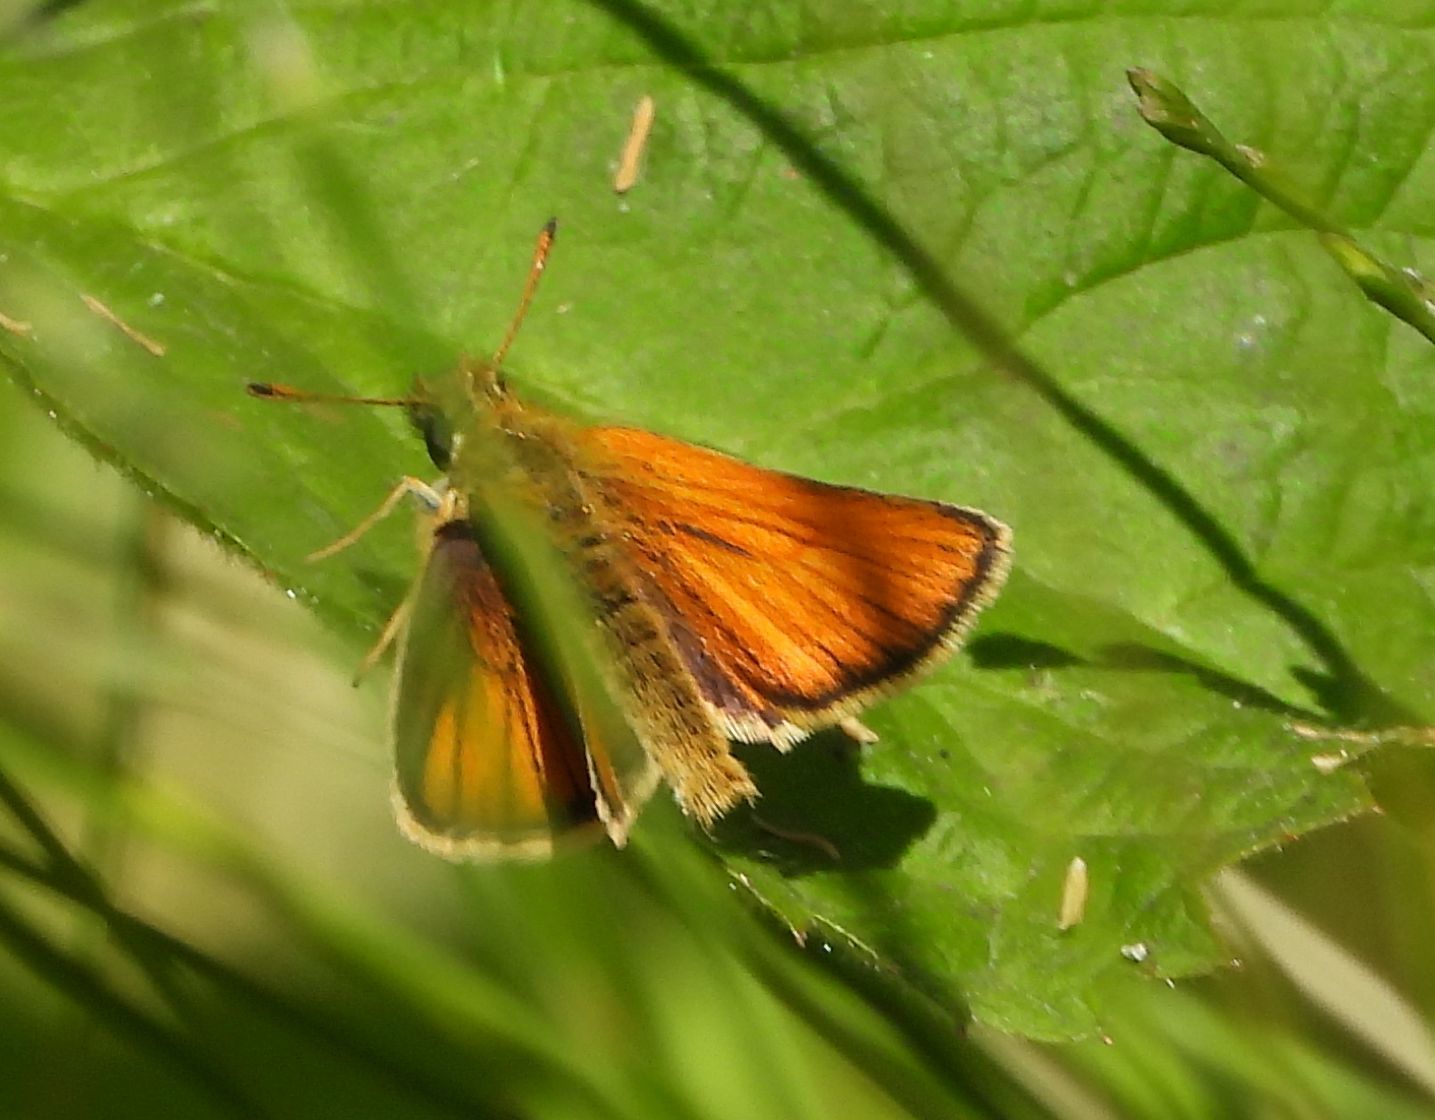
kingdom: Animalia
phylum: Arthropoda
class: Insecta
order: Lepidoptera
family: Hesperiidae
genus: Thymelicus
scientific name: Thymelicus lineola
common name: Essex skipper
